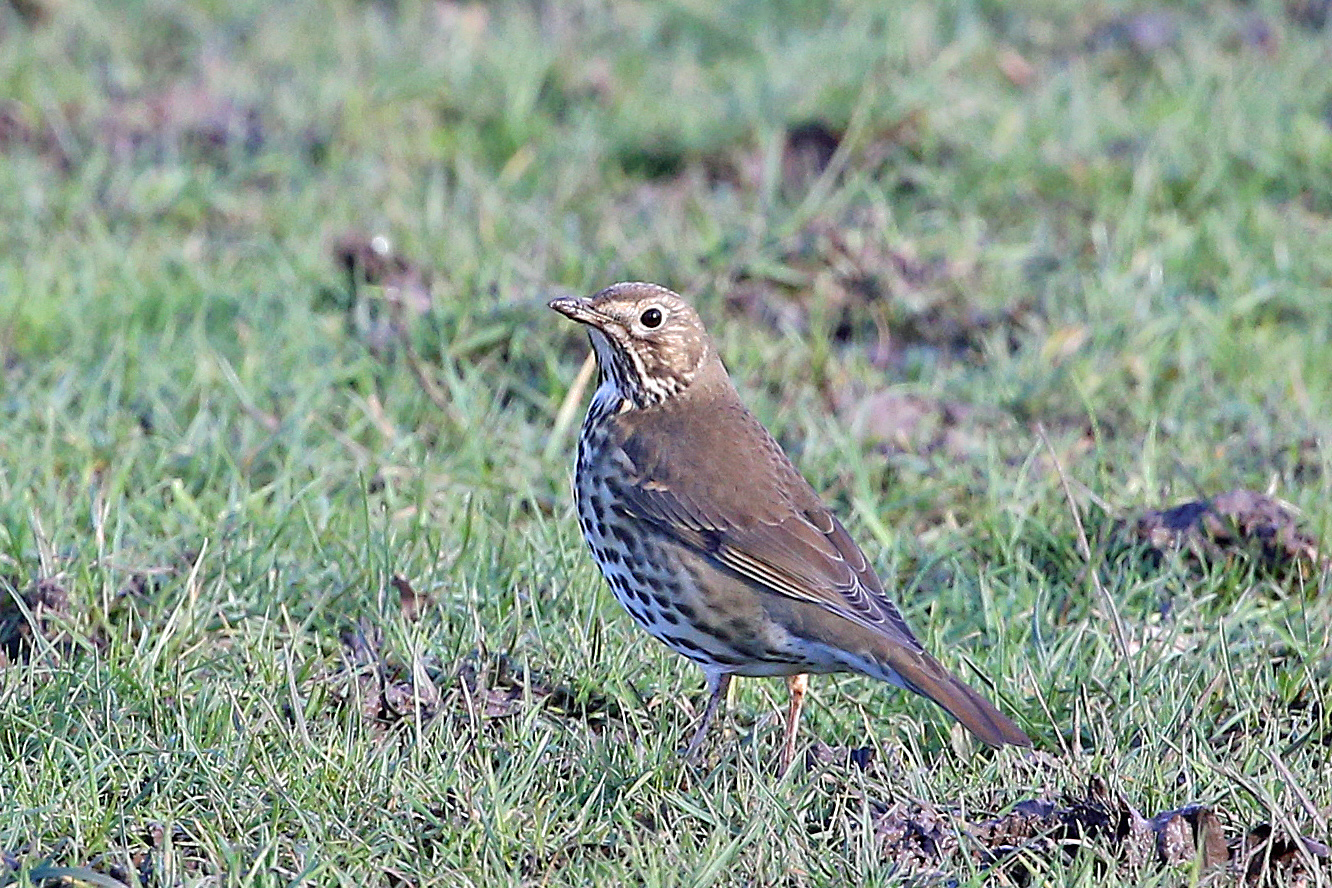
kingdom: Animalia
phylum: Chordata
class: Aves
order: Passeriformes
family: Turdidae
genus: Turdus
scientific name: Turdus philomelos
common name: Song thrush
